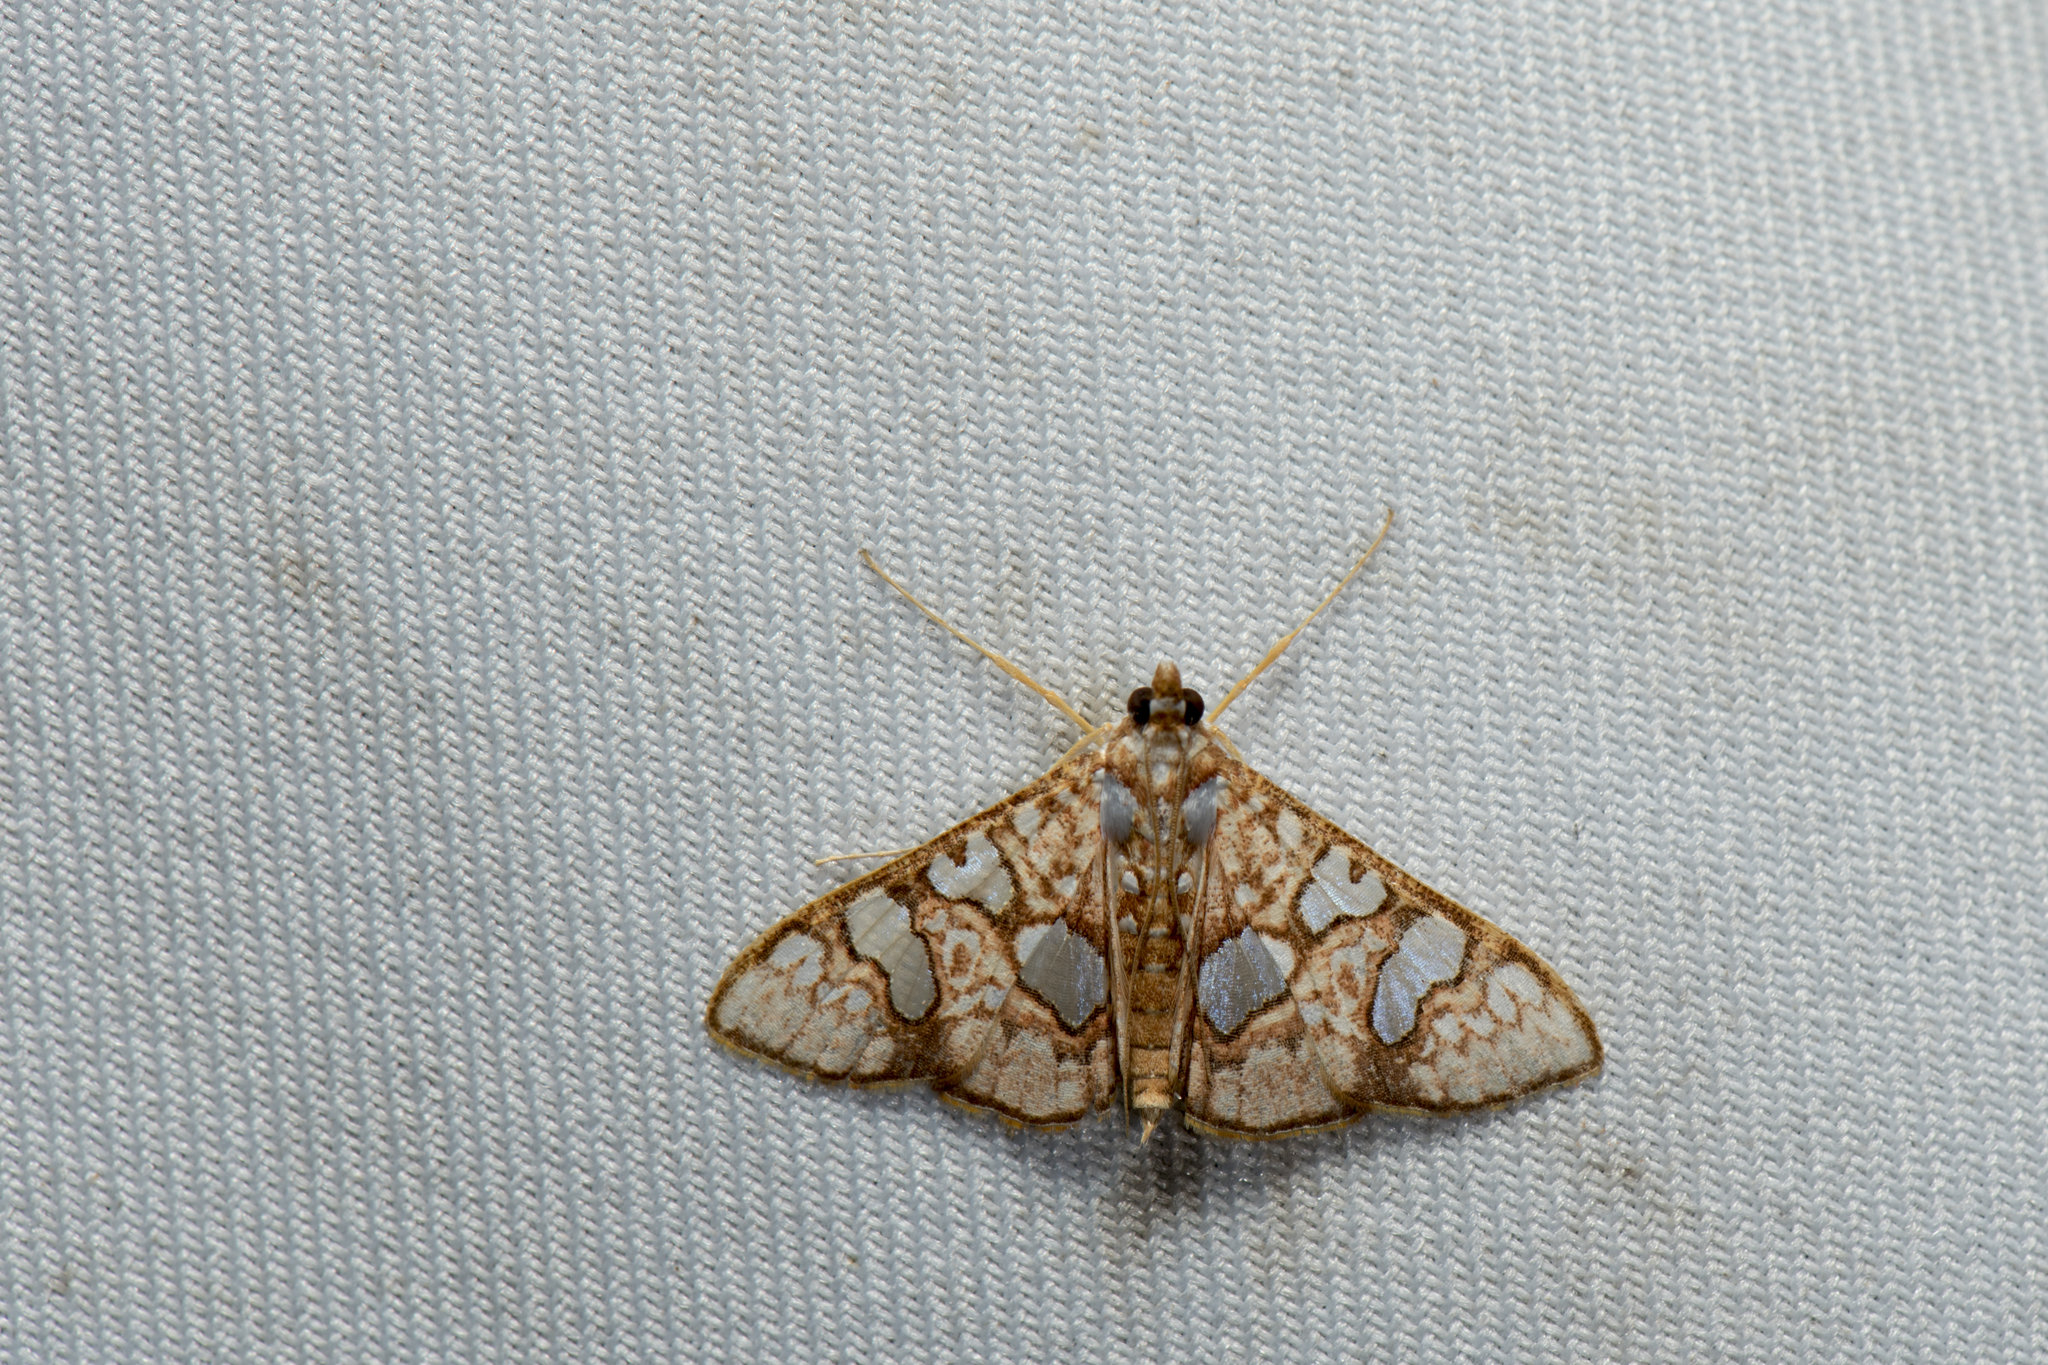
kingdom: Animalia
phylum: Arthropoda
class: Insecta
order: Lepidoptera
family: Crambidae
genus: Glyphodes
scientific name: Glyphodes canthusalis
